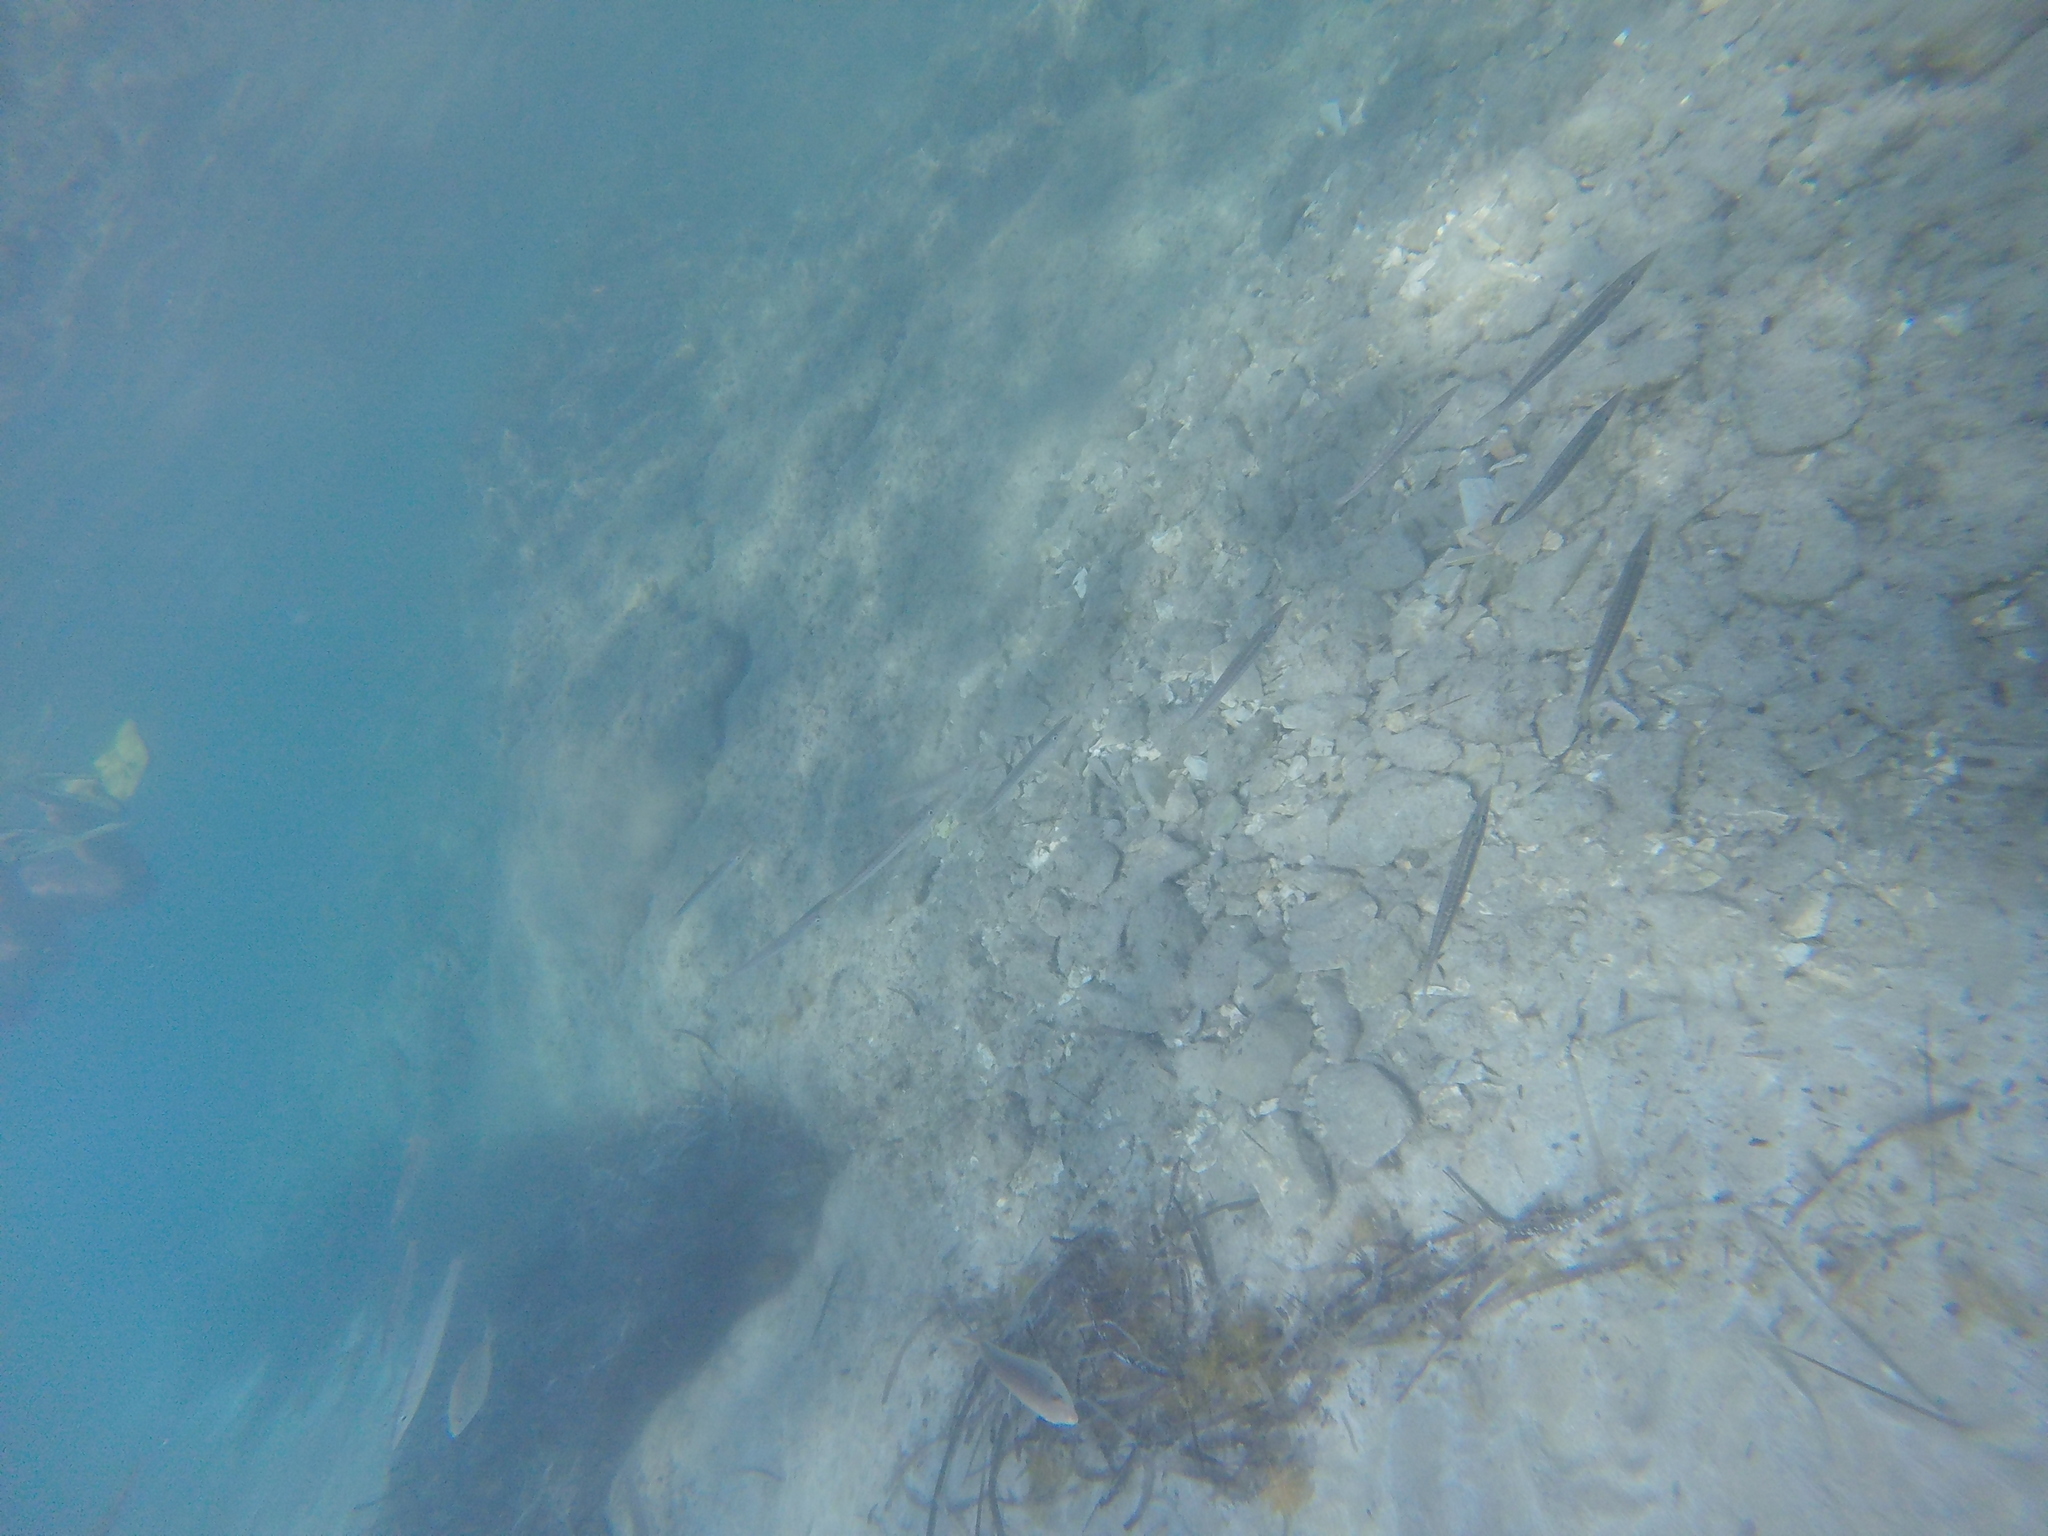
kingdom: Animalia
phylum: Chordata
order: Perciformes
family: Sphyraenidae
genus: Sphyraena
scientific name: Sphyraena
